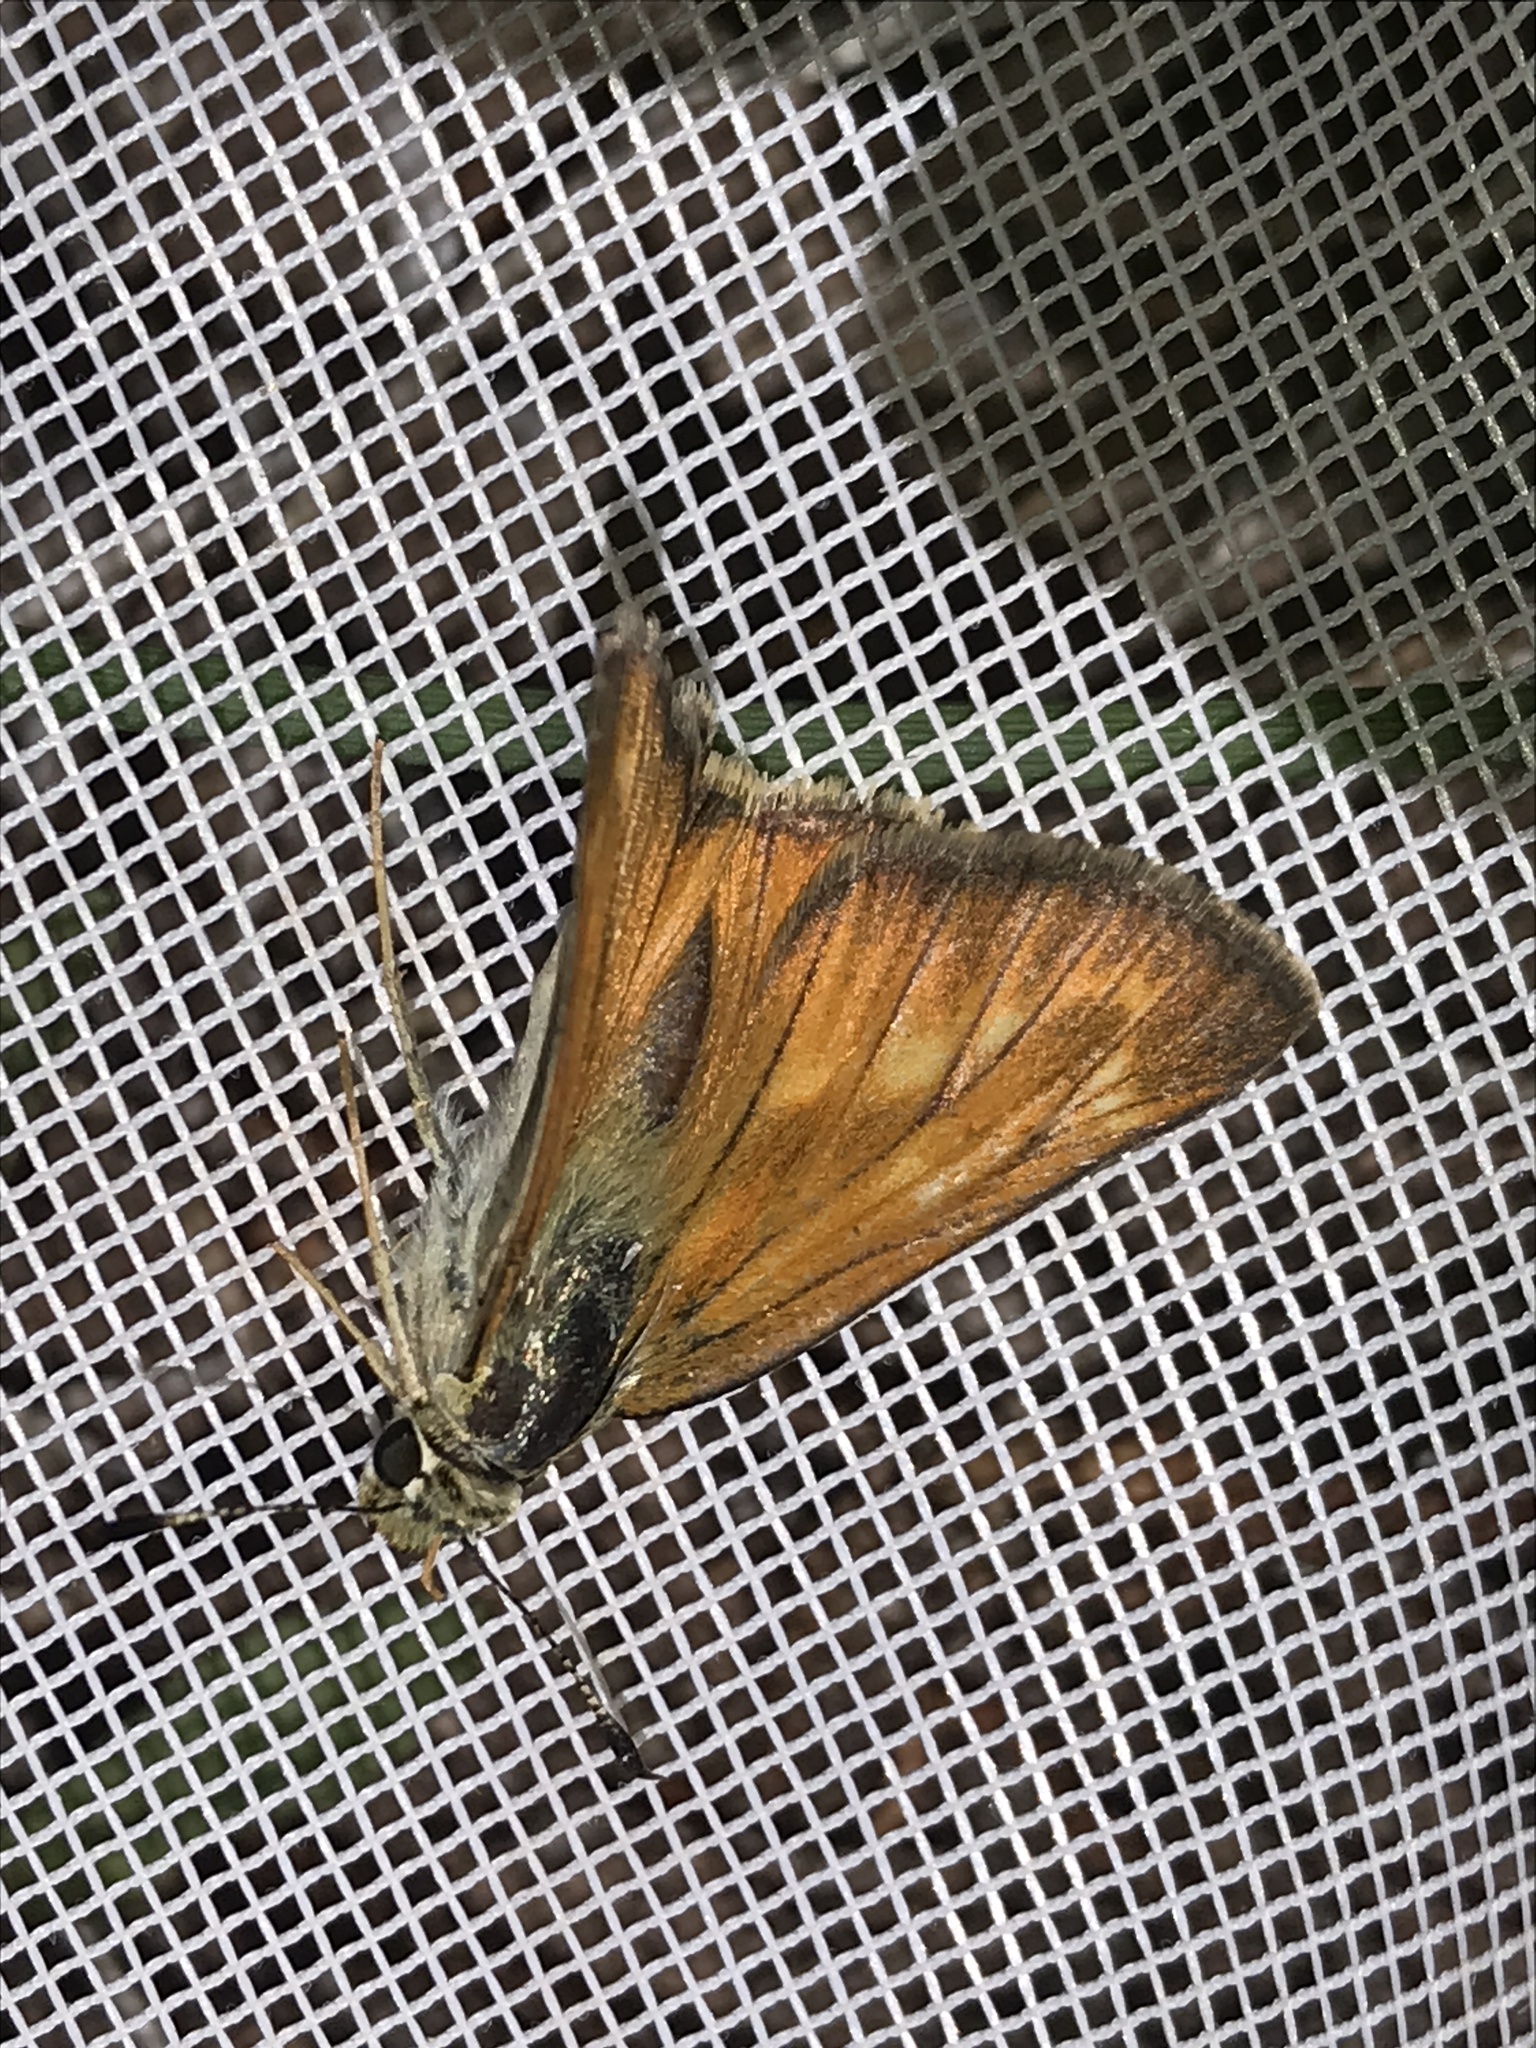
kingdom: Animalia
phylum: Arthropoda
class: Insecta
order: Lepidoptera
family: Hesperiidae
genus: Ochlodes
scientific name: Ochlodes sylvanoides
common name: Woodland skipper
